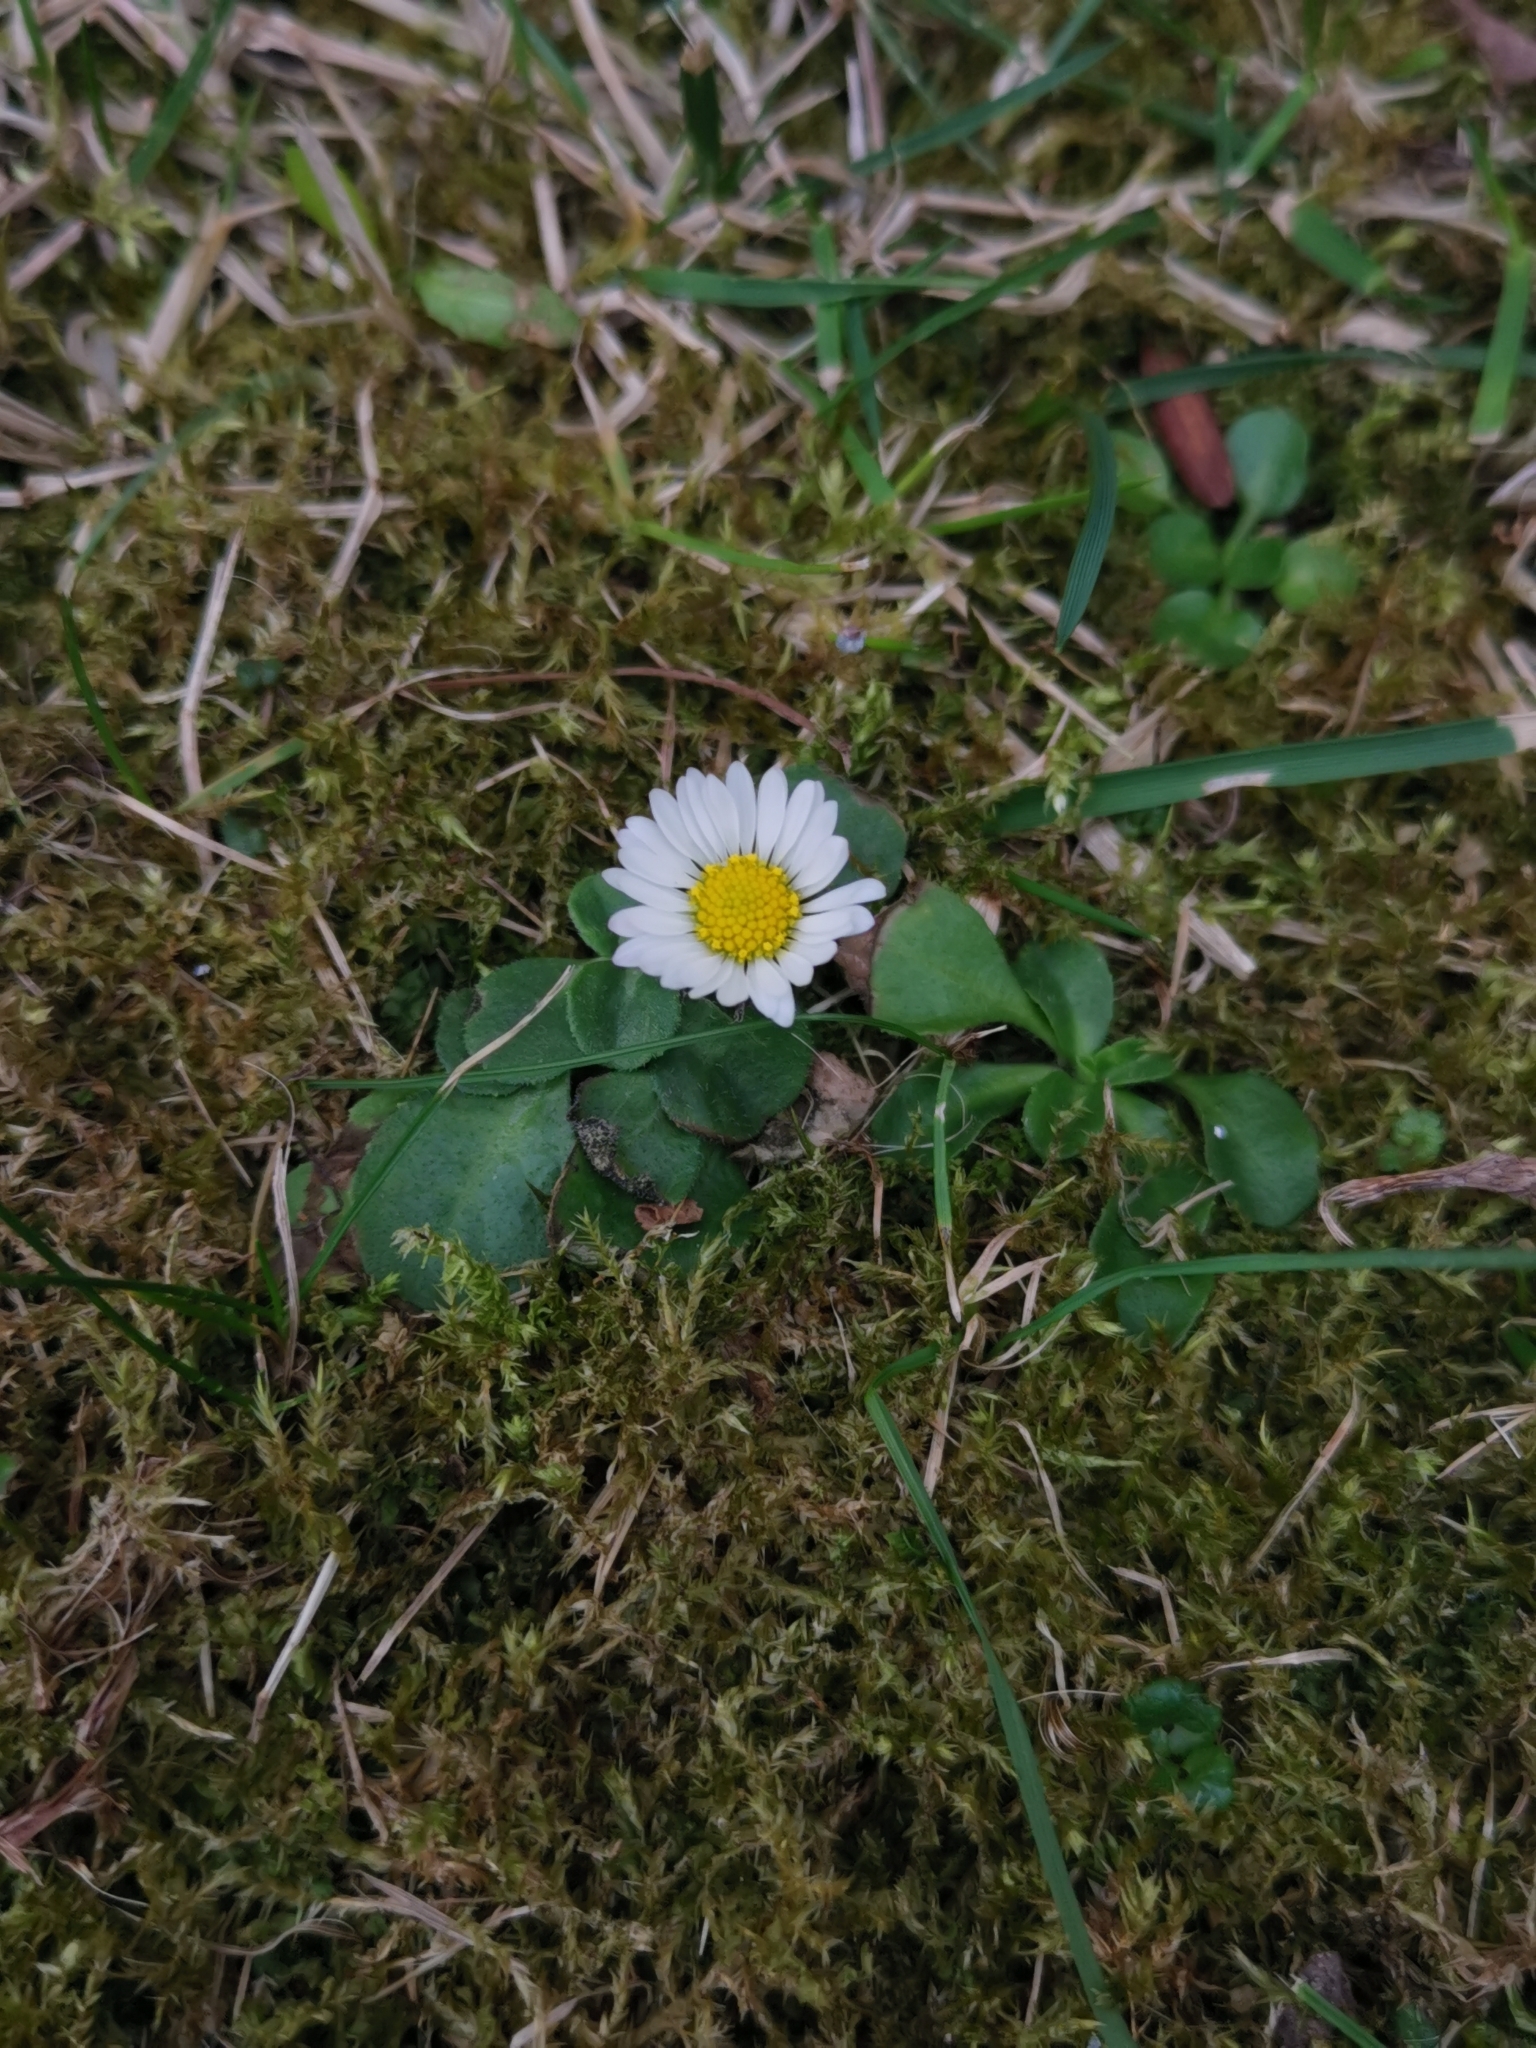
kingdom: Plantae
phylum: Tracheophyta
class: Magnoliopsida
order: Asterales
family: Asteraceae
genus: Bellis
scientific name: Bellis perennis
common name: Lawndaisy
